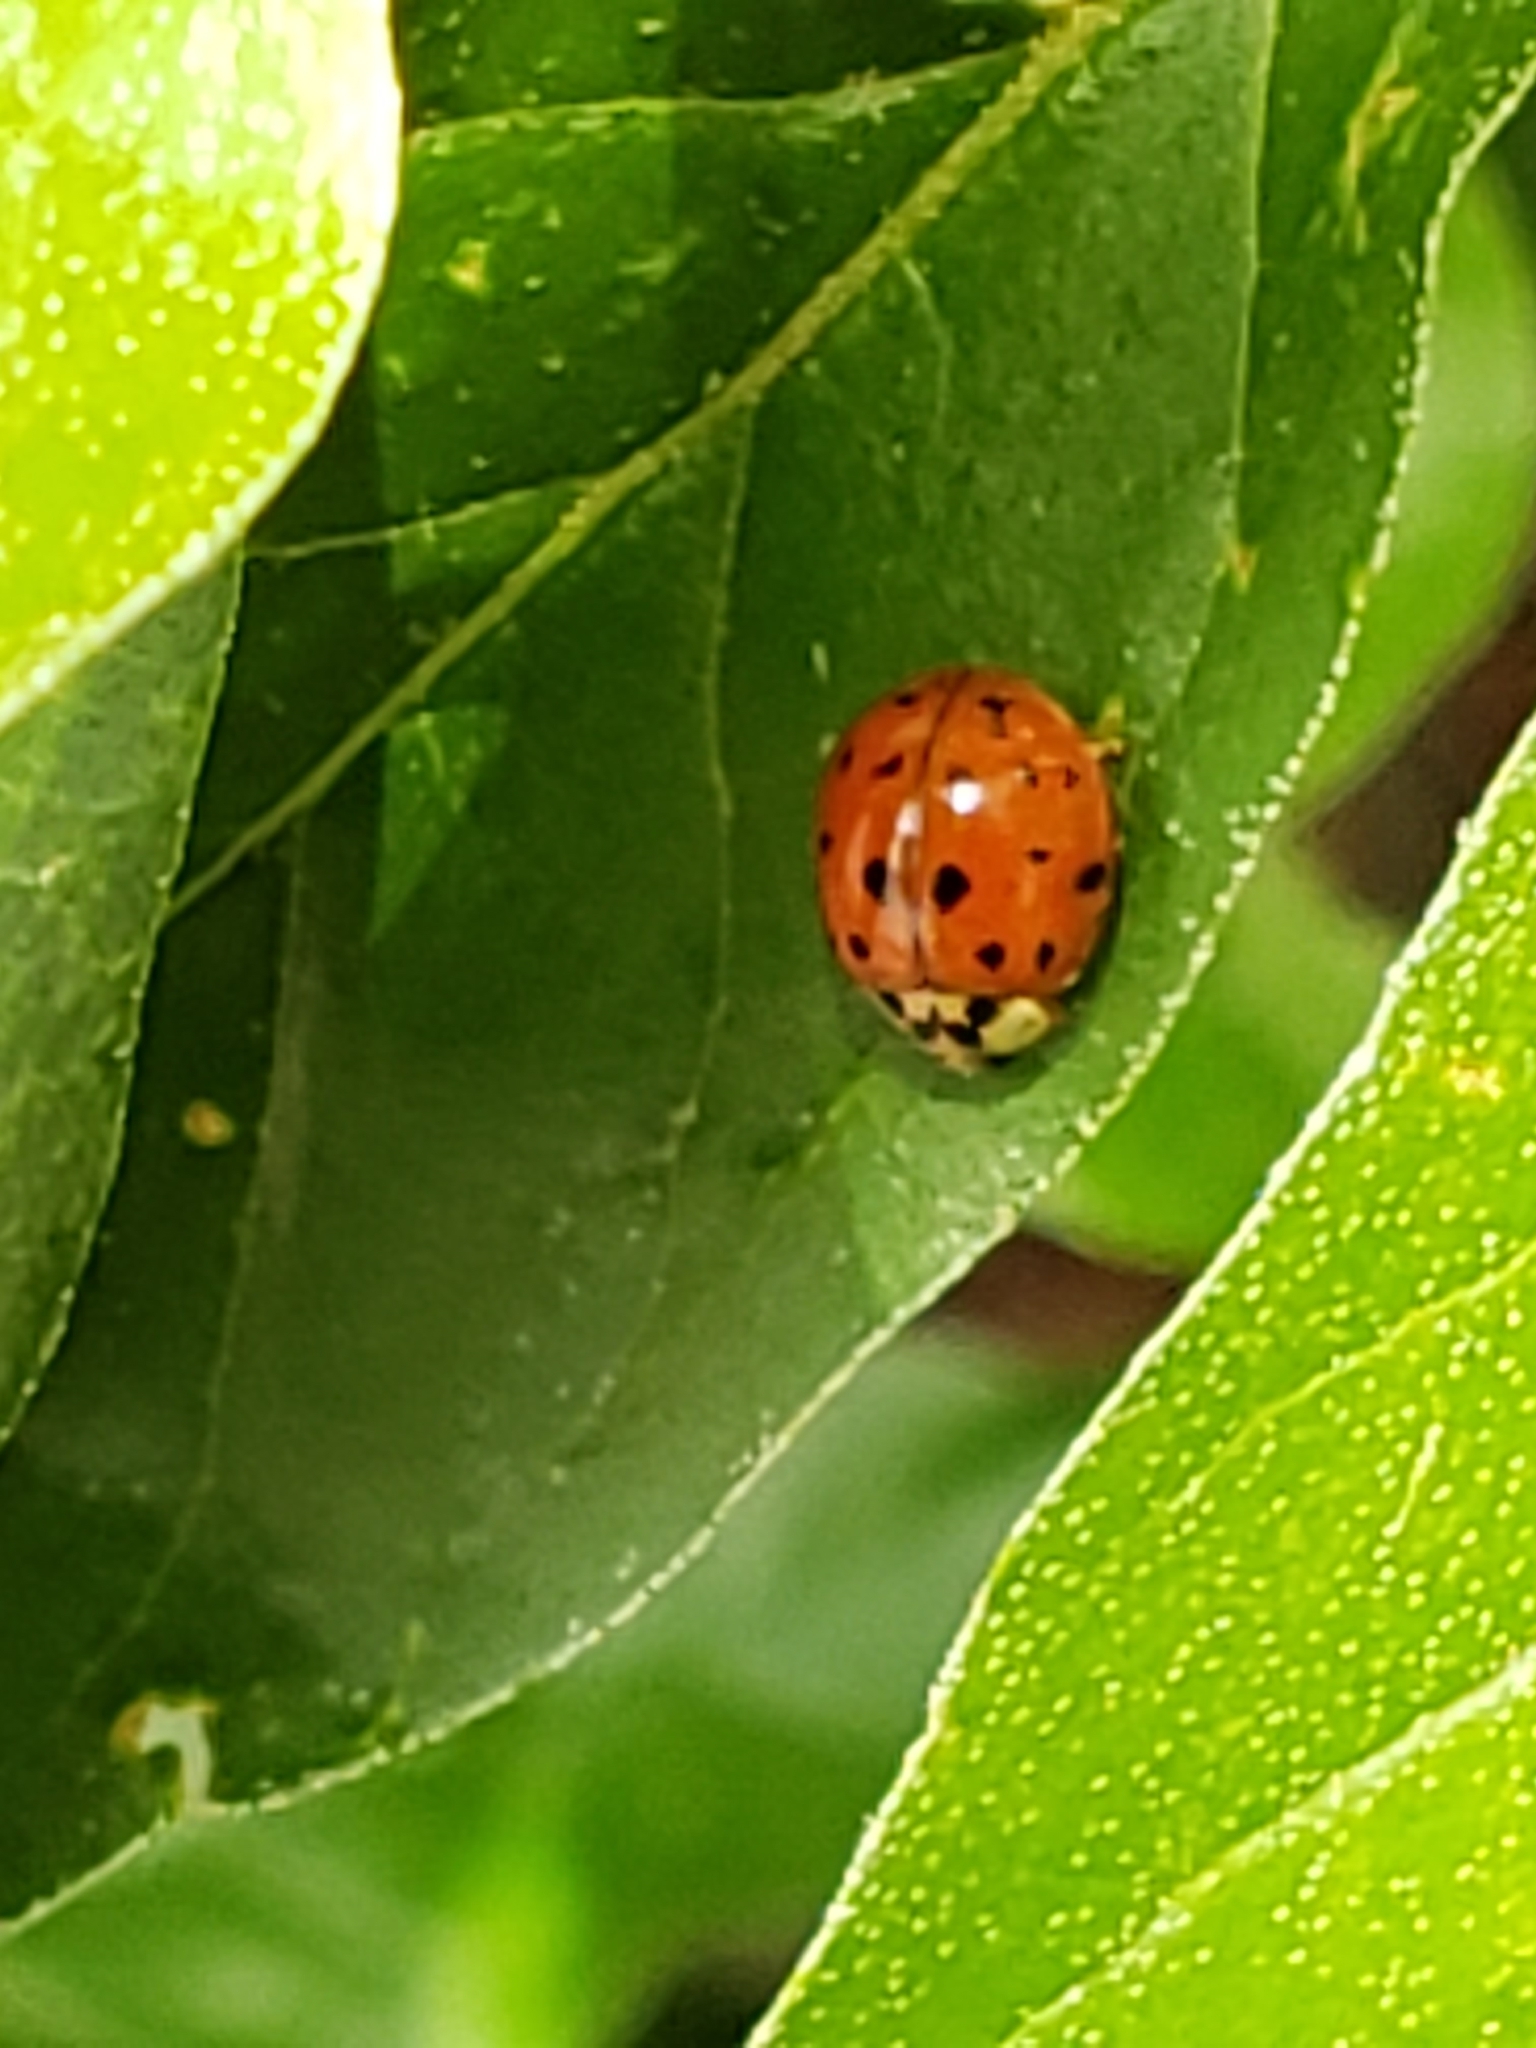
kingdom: Animalia
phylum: Arthropoda
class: Insecta
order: Coleoptera
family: Coccinellidae
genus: Harmonia
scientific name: Harmonia axyridis
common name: Harlequin ladybird
